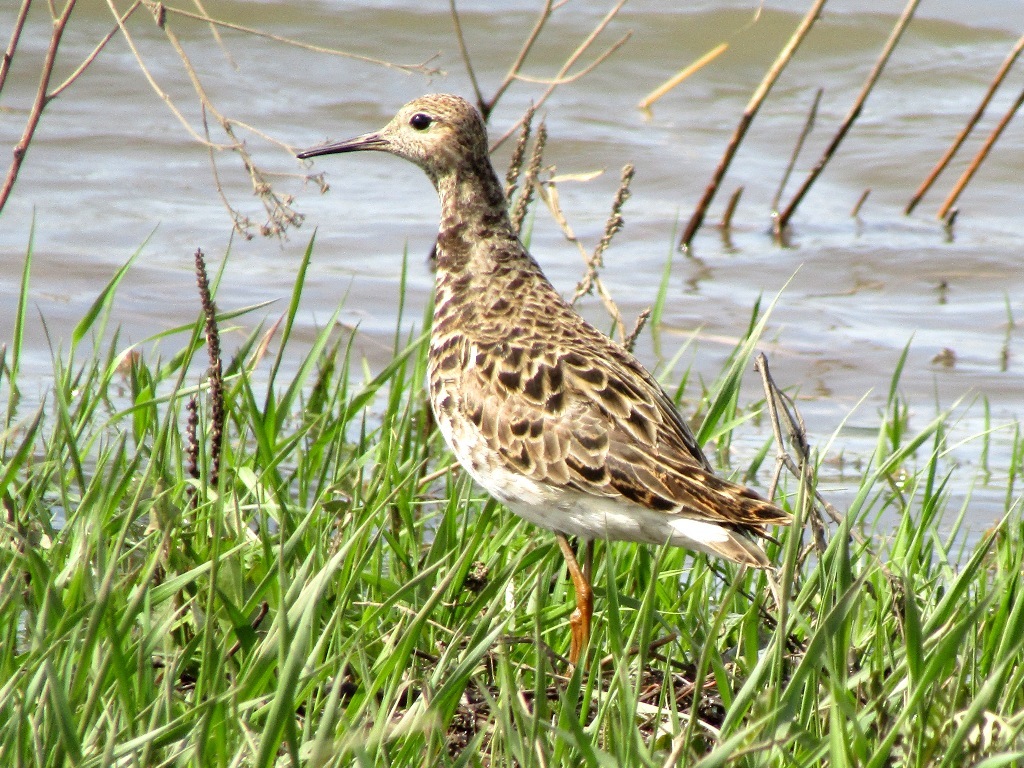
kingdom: Animalia
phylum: Chordata
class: Aves
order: Charadriiformes
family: Scolopacidae
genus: Calidris
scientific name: Calidris pugnax
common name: Ruff
